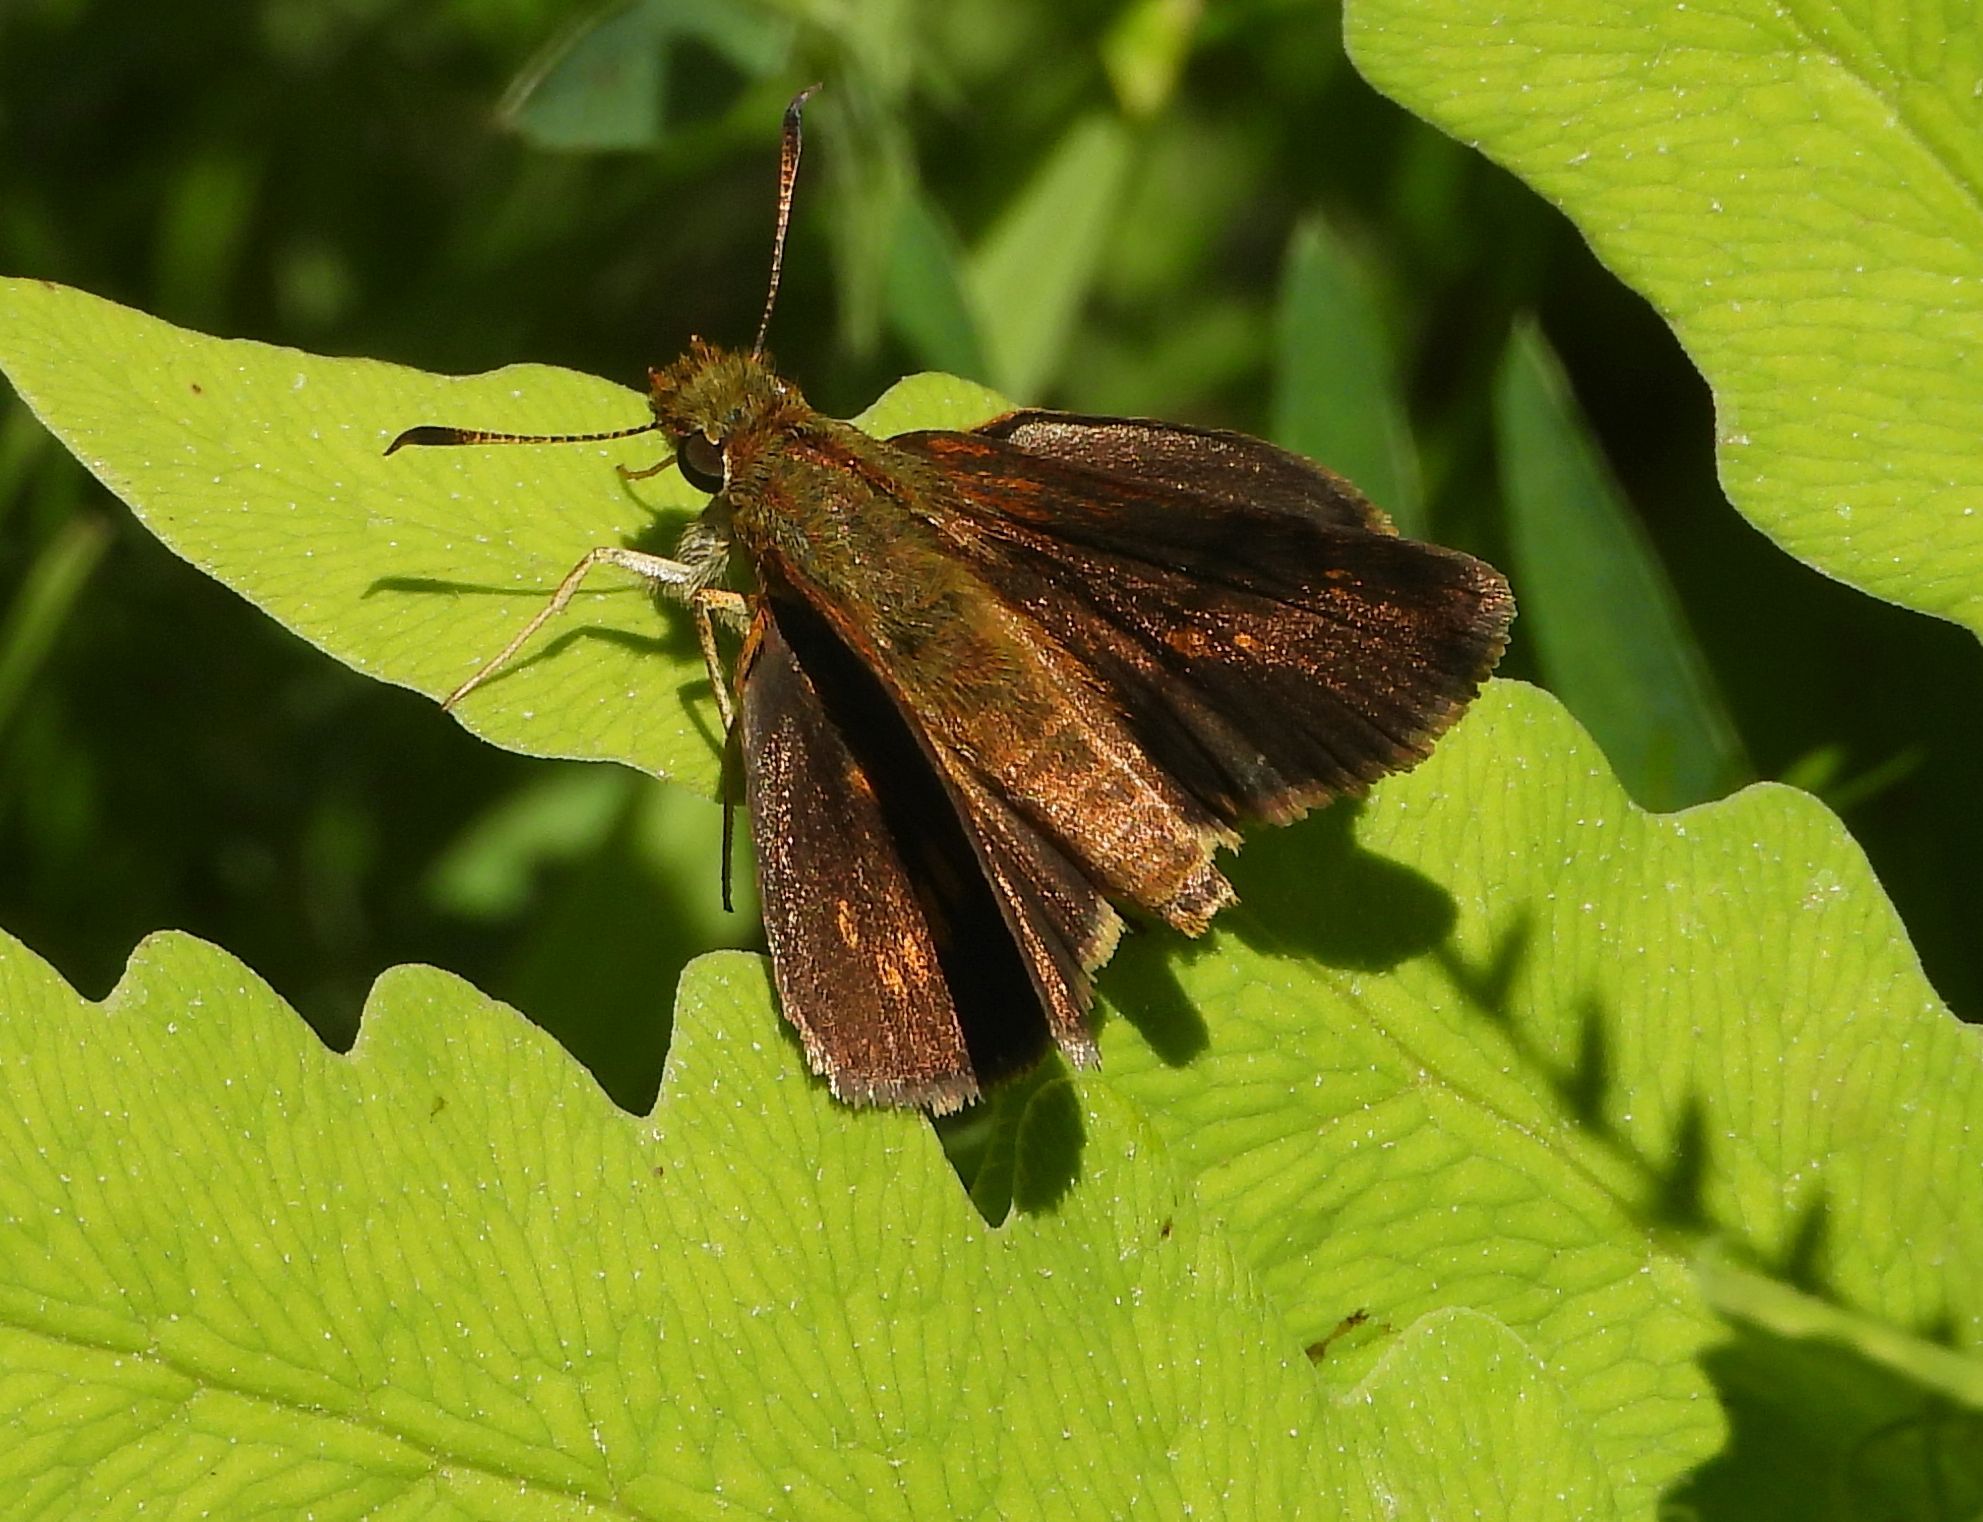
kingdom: Animalia
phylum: Arthropoda
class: Insecta
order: Lepidoptera
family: Hesperiidae
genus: Poanes
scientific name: Poanes massasoit
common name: Mulberrywing
